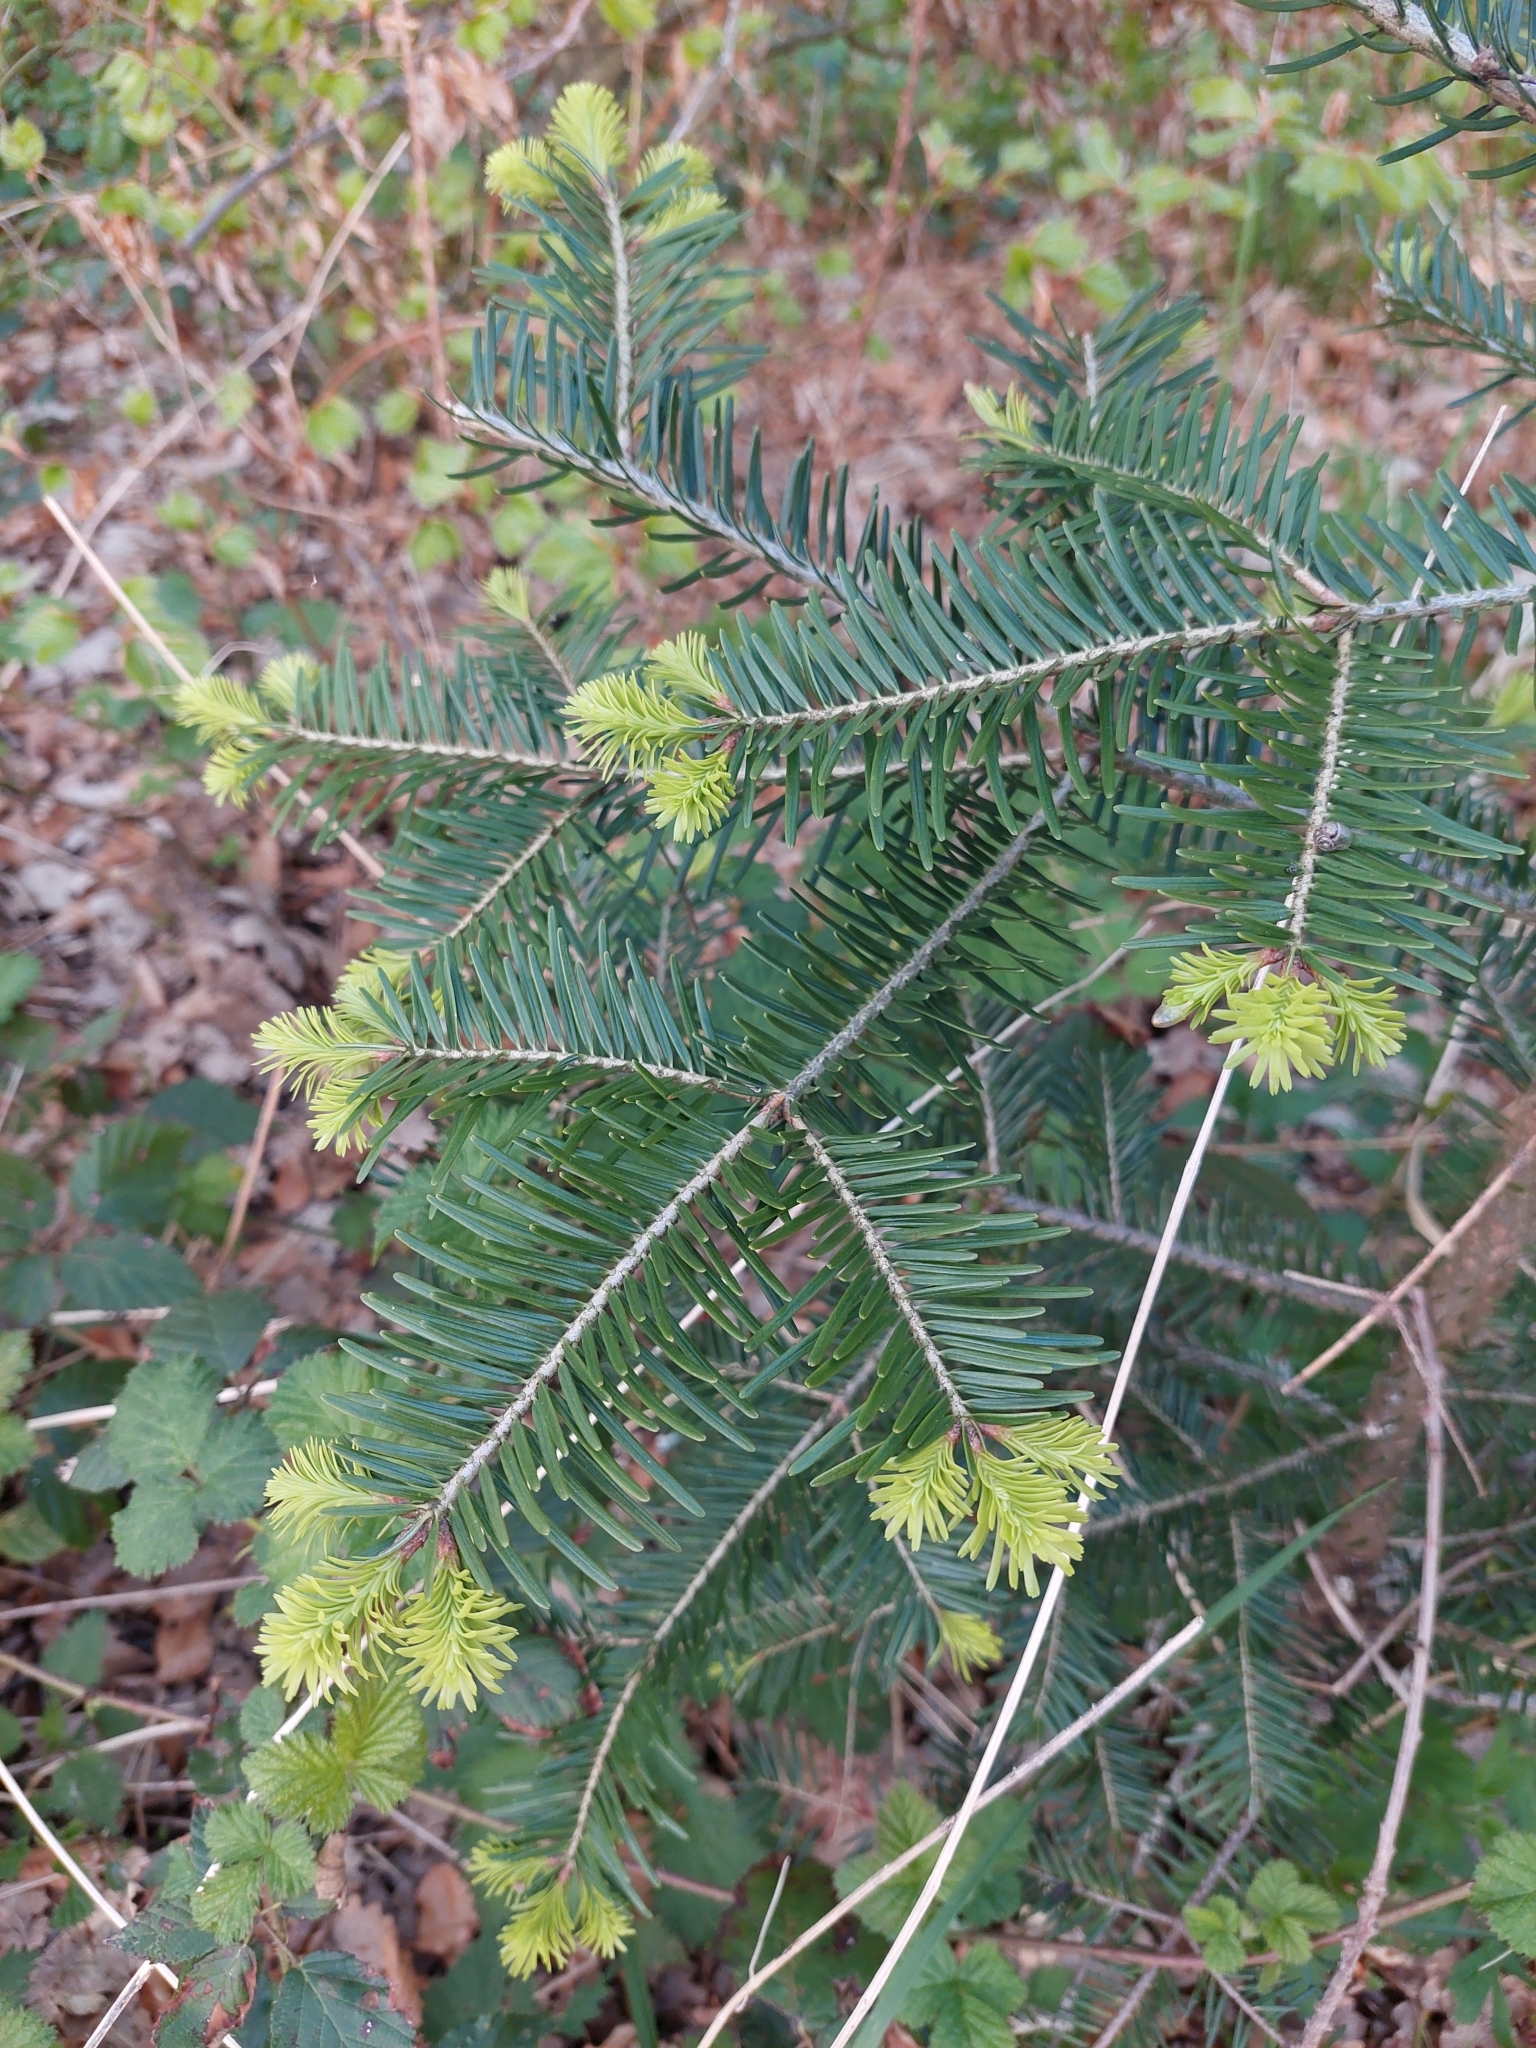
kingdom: Plantae
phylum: Tracheophyta
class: Pinopsida
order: Pinales
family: Pinaceae
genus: Abies
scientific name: Abies alba
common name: Silver fir
